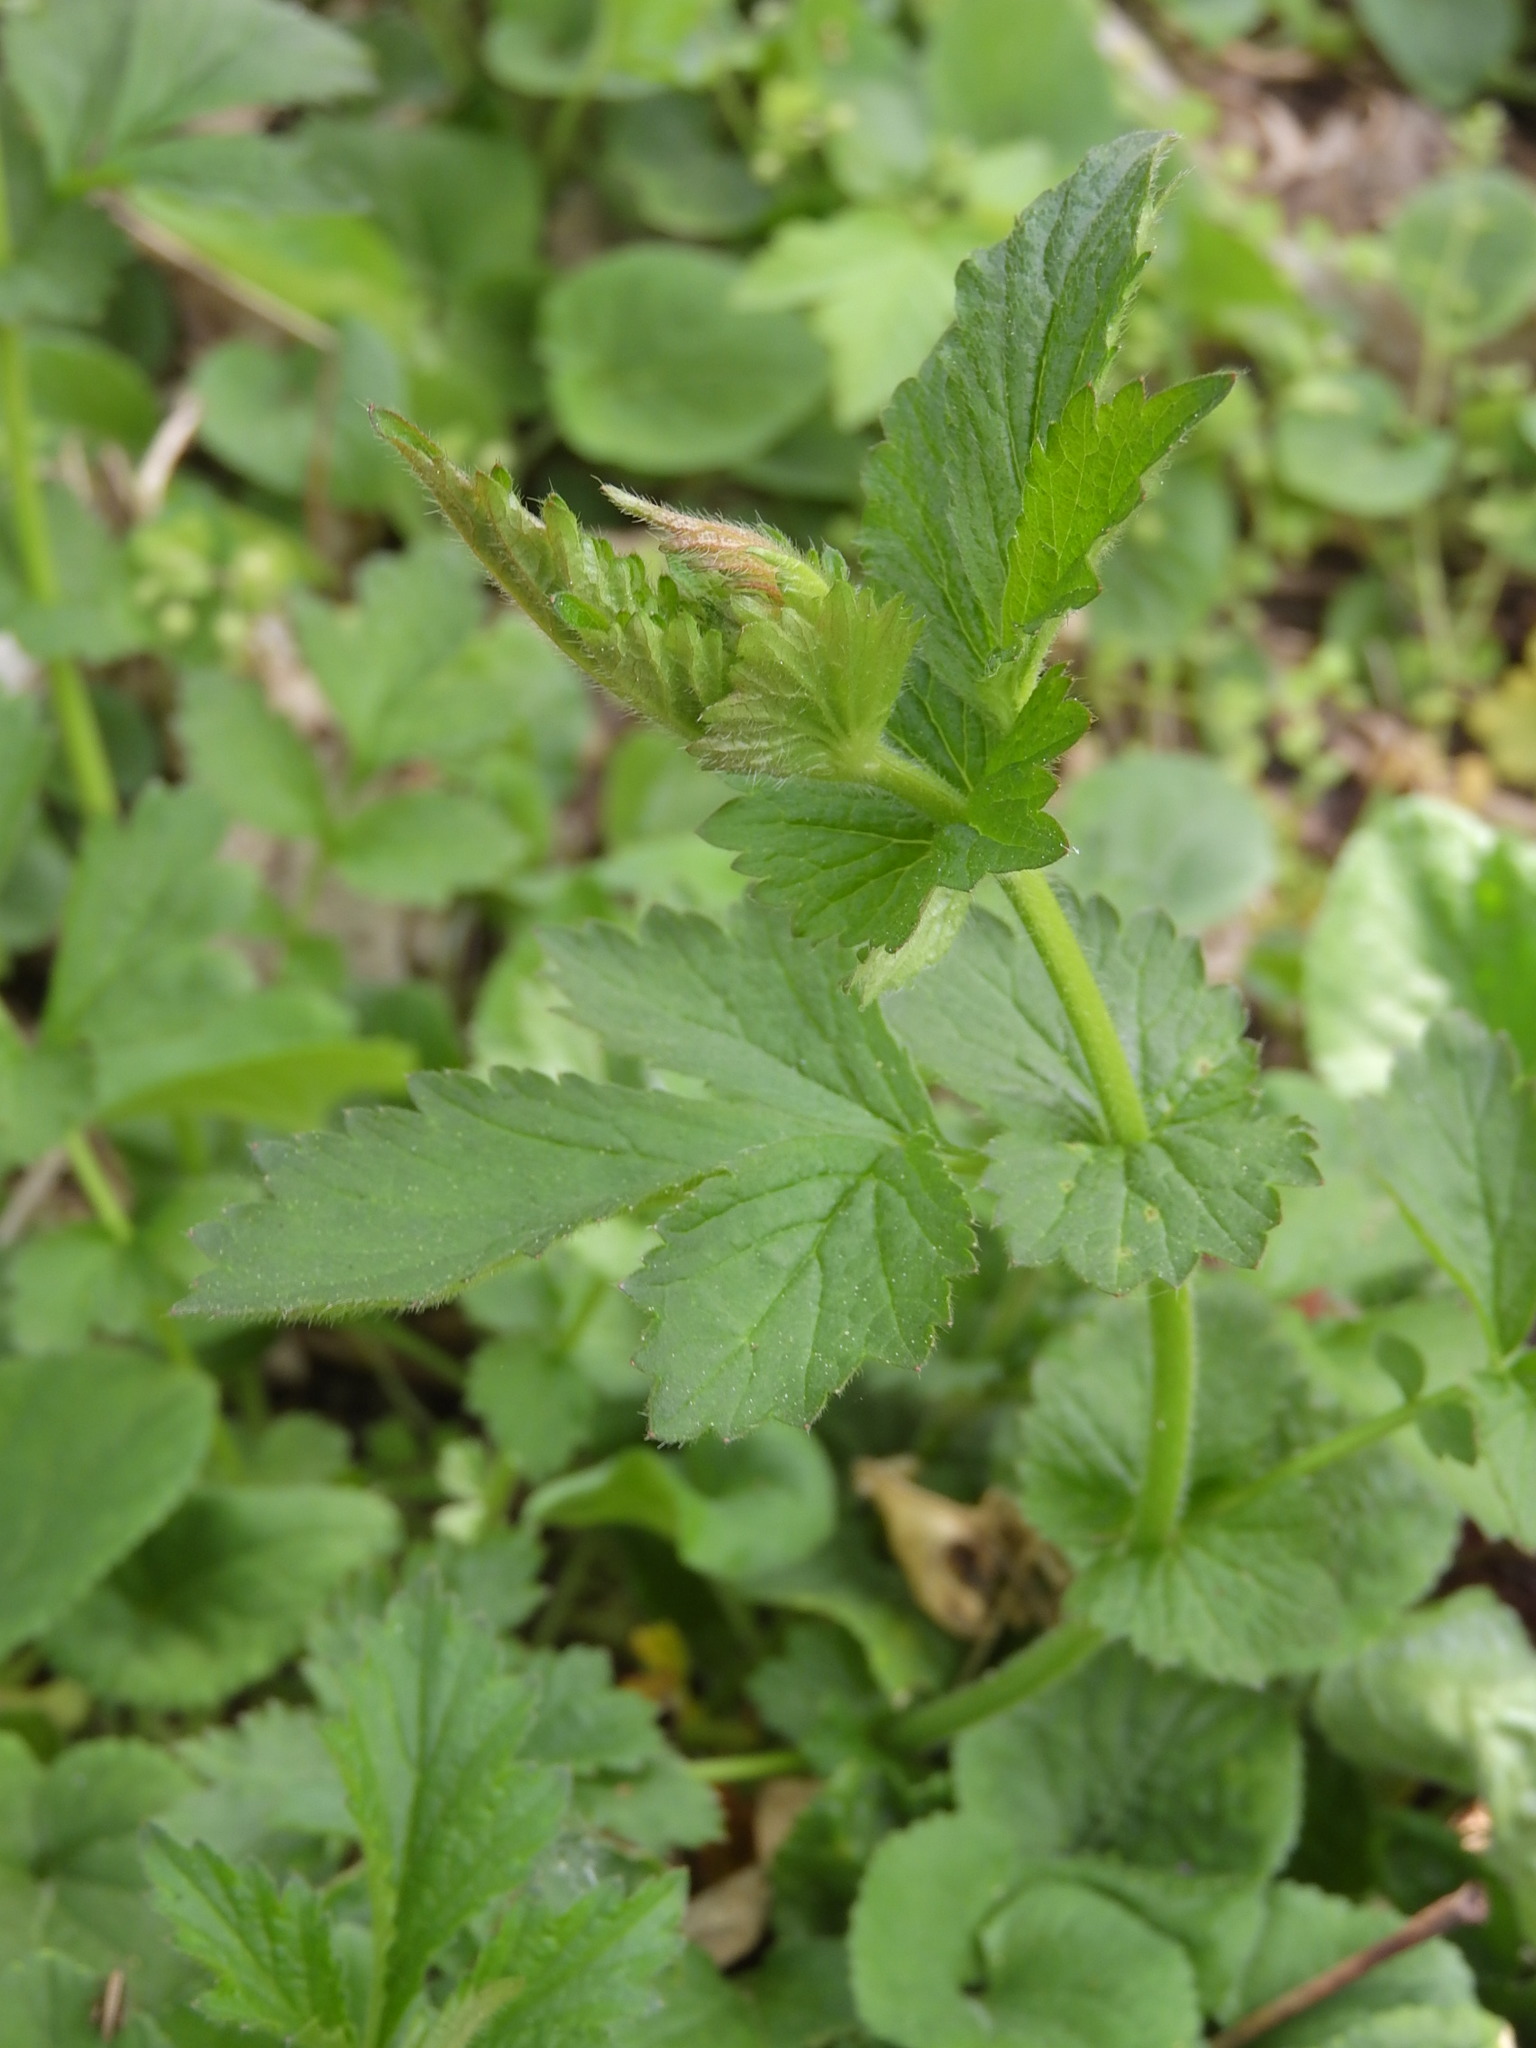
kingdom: Plantae
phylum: Tracheophyta
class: Magnoliopsida
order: Rosales
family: Rosaceae
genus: Geum
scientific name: Geum urbanum
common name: Wood avens
